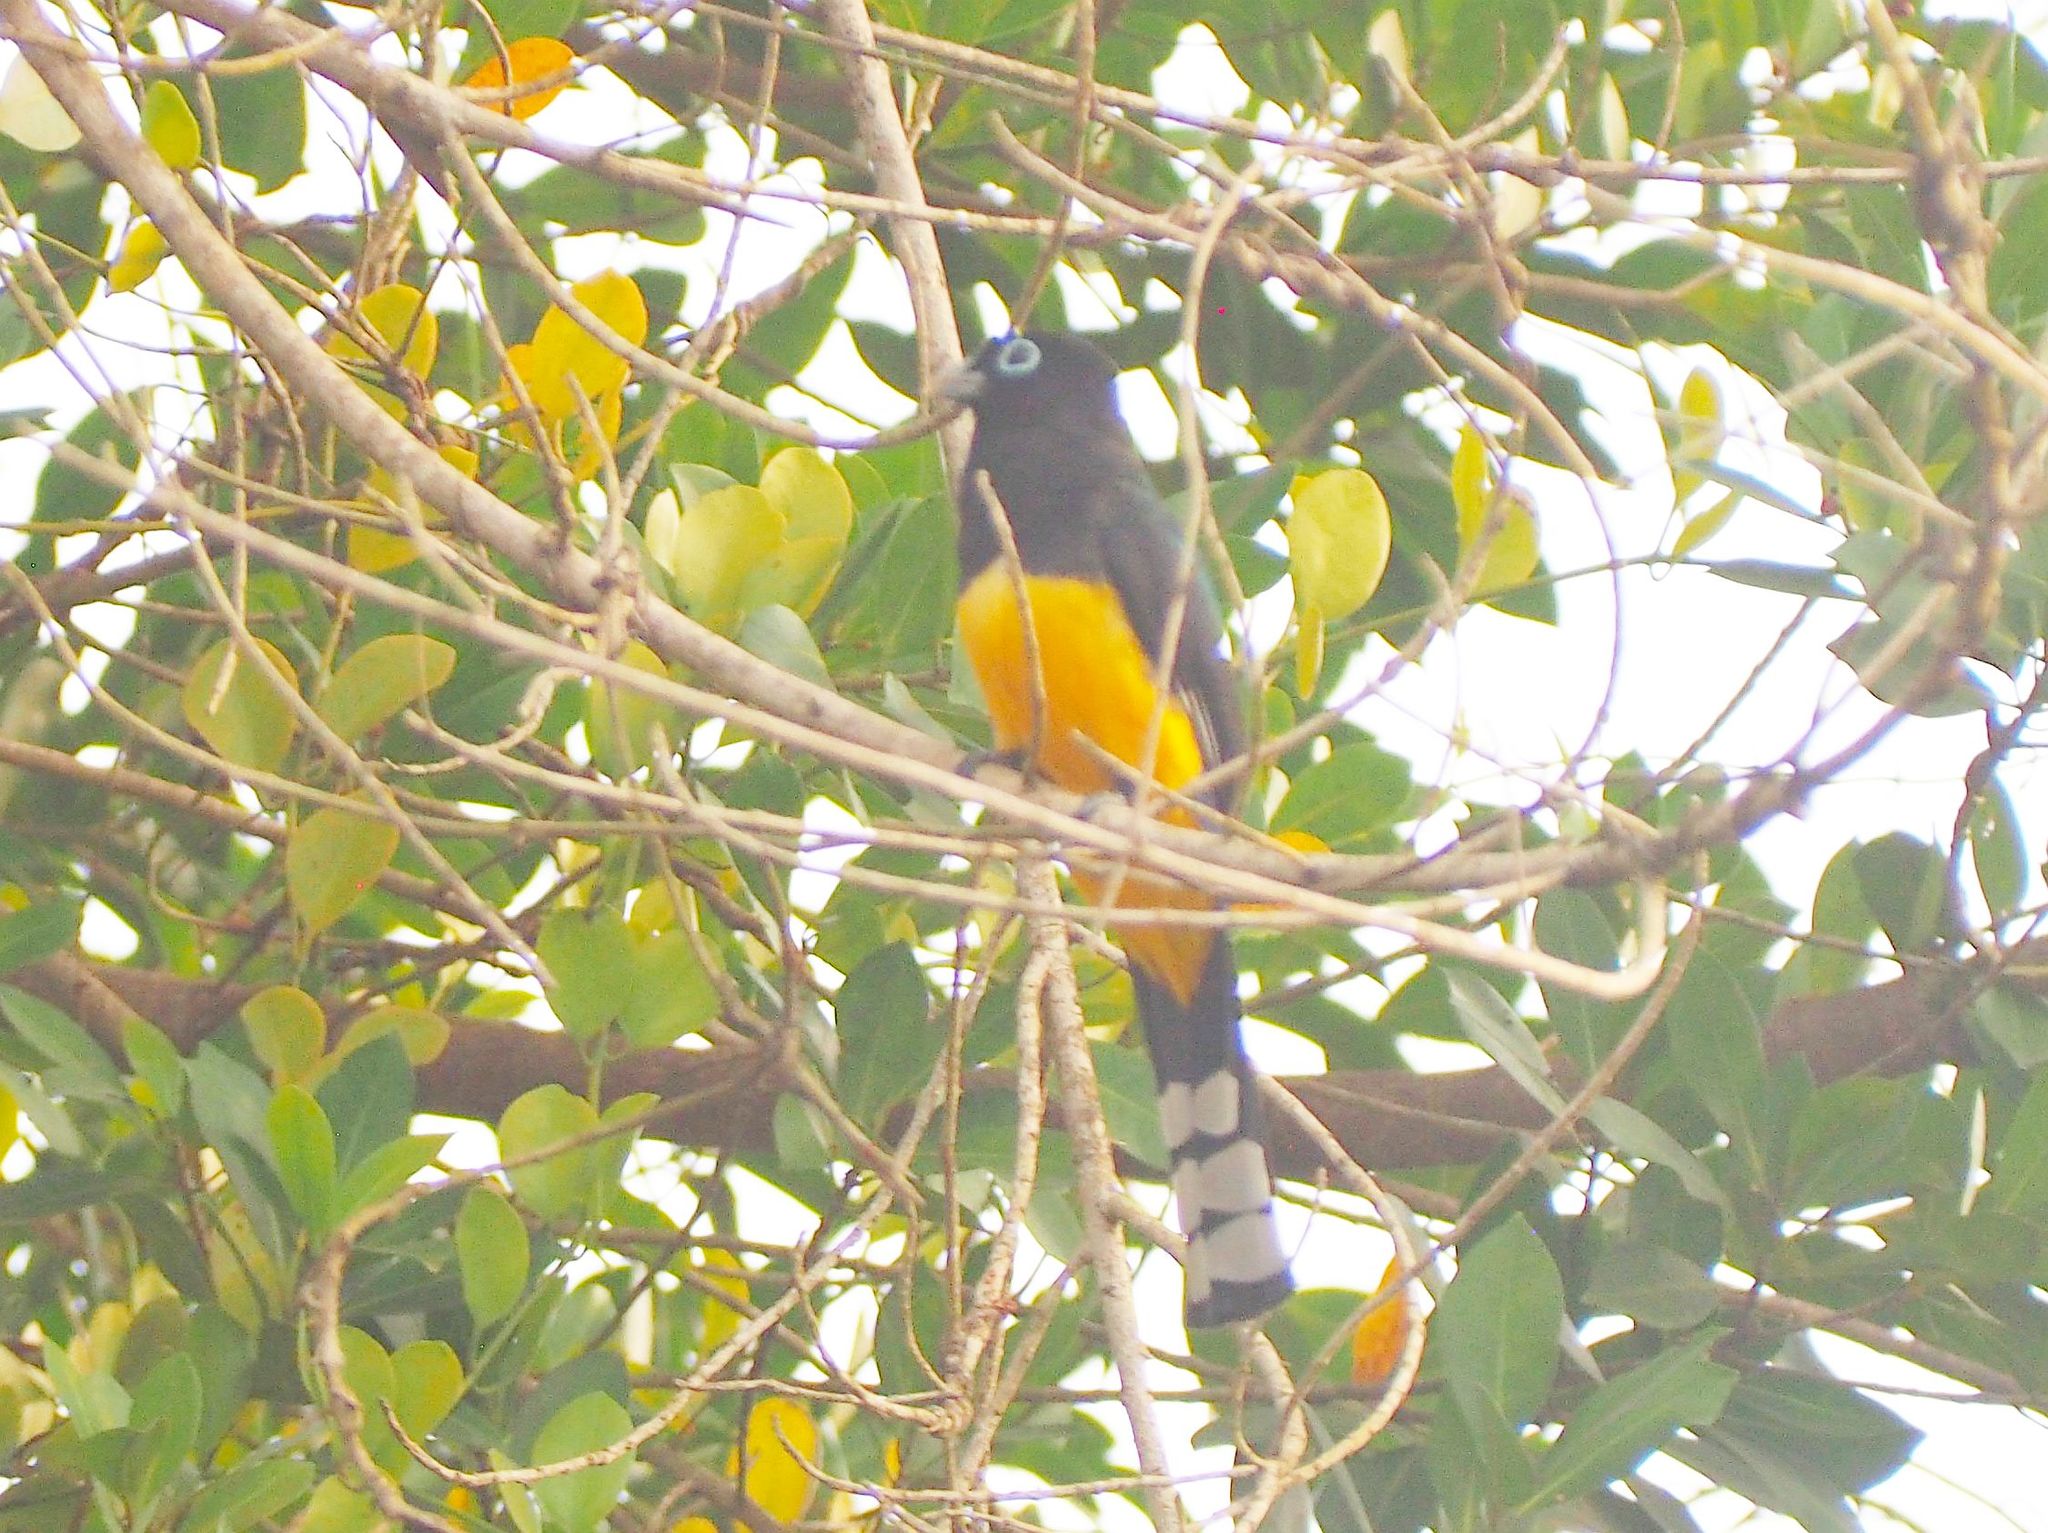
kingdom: Animalia
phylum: Chordata
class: Aves
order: Trogoniformes
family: Trogonidae
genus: Trogon
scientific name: Trogon melanocephalus
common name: Black-headed trogon
